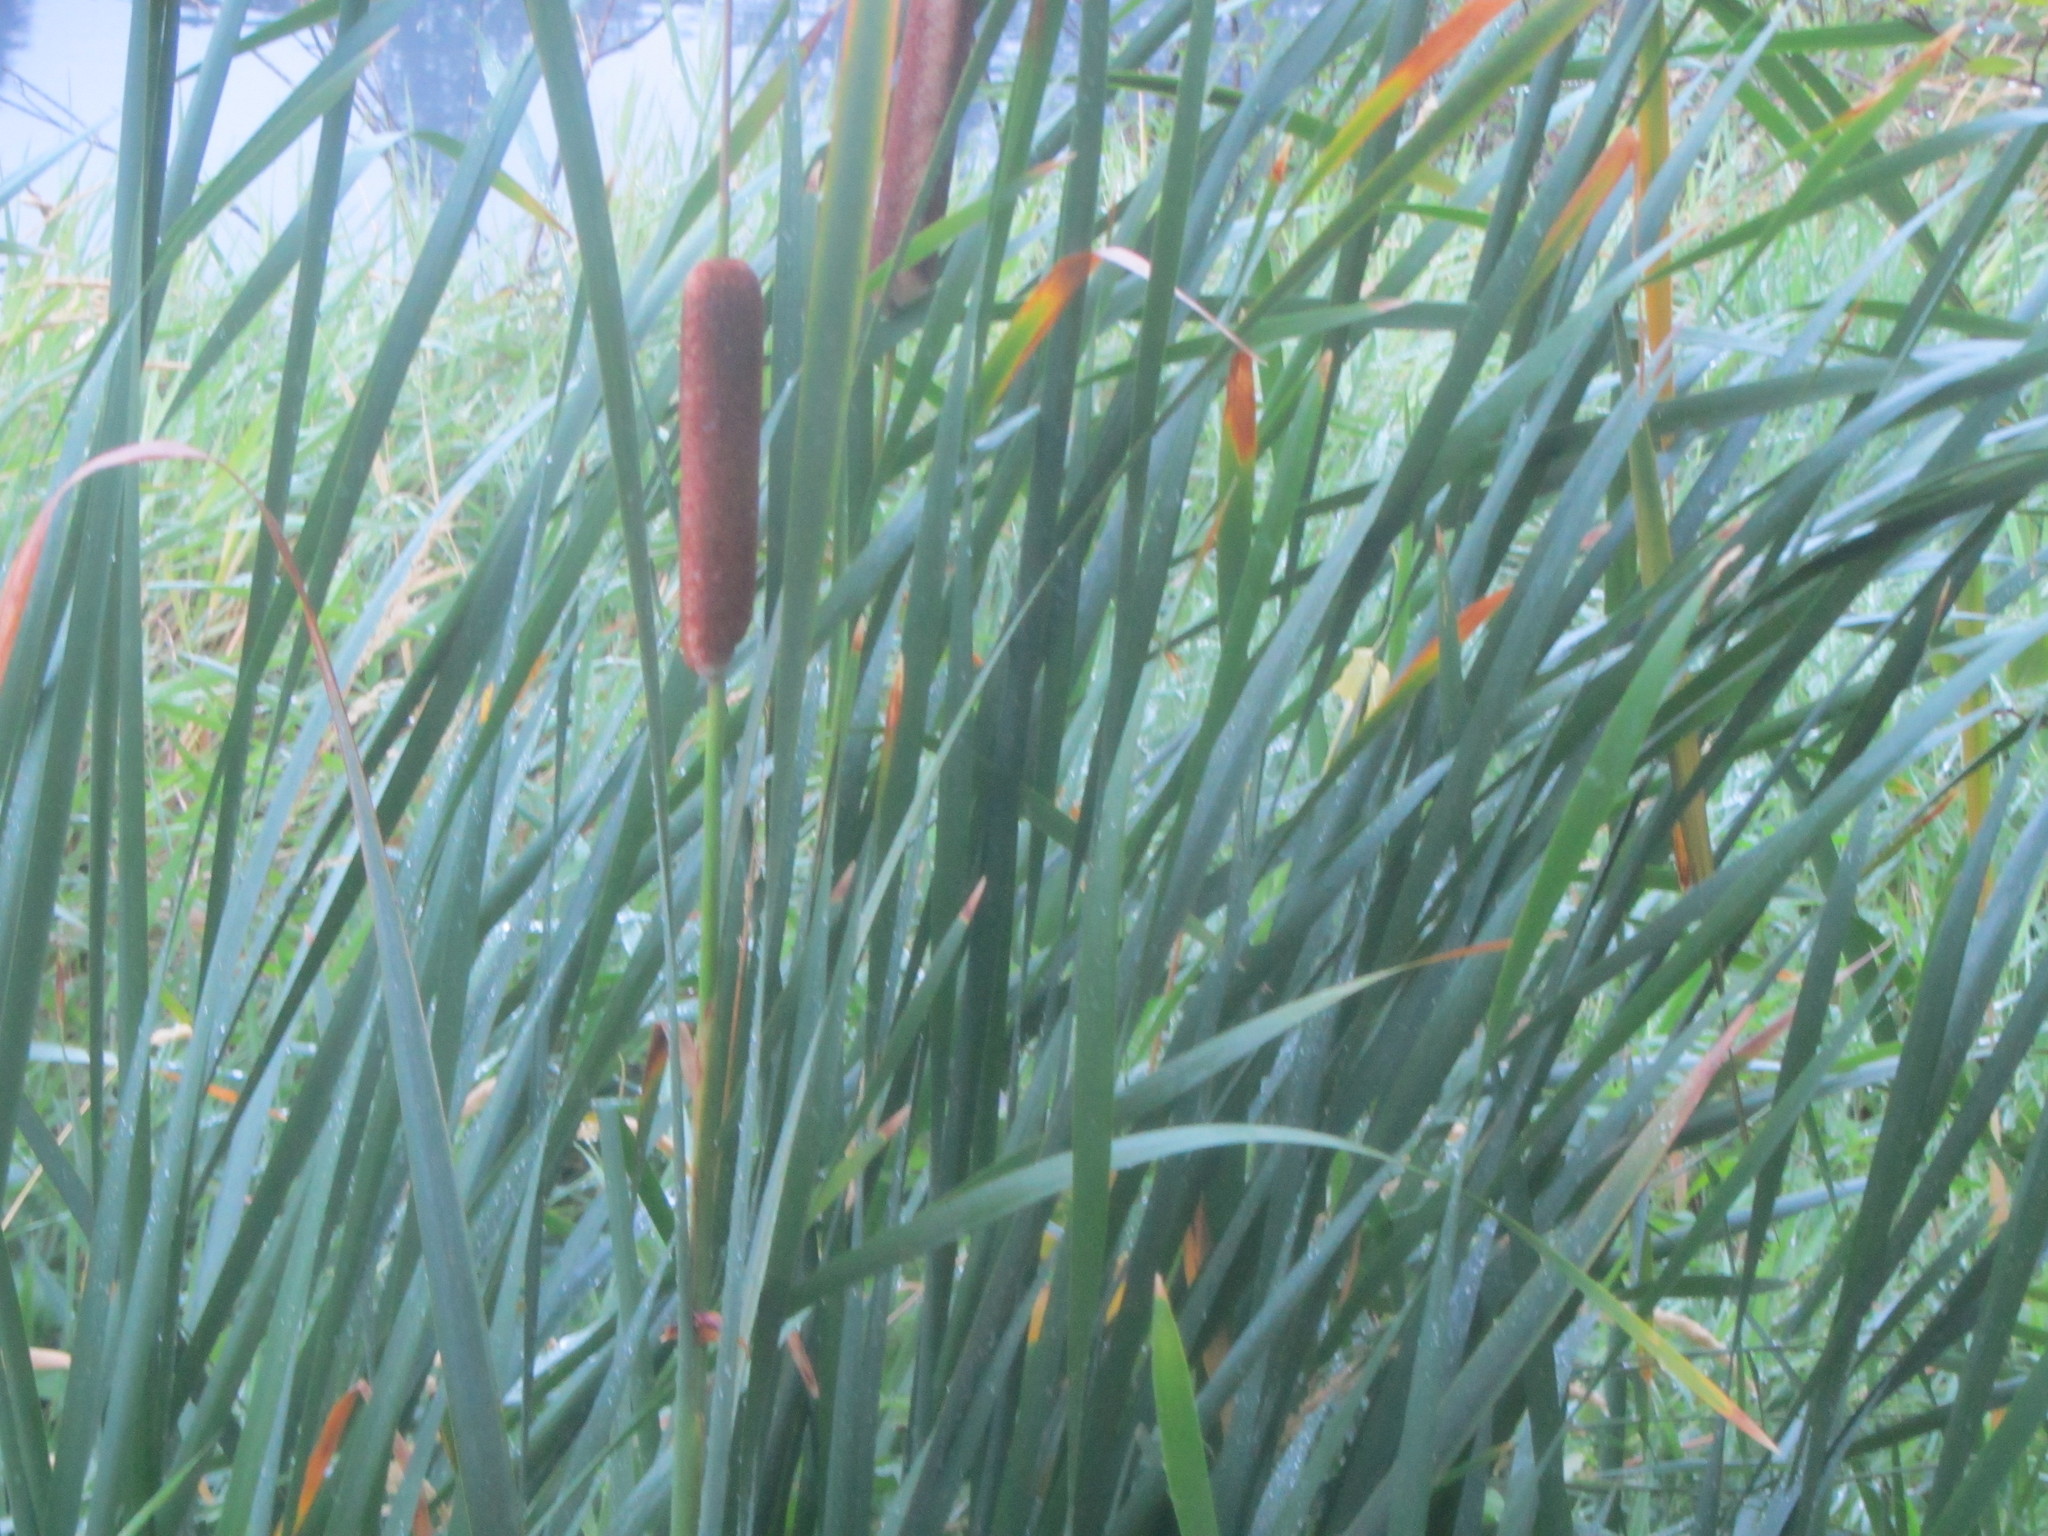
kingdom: Plantae
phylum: Tracheophyta
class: Liliopsida
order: Poales
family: Typhaceae
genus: Typha
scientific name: Typha latifolia
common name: Broadleaf cattail
